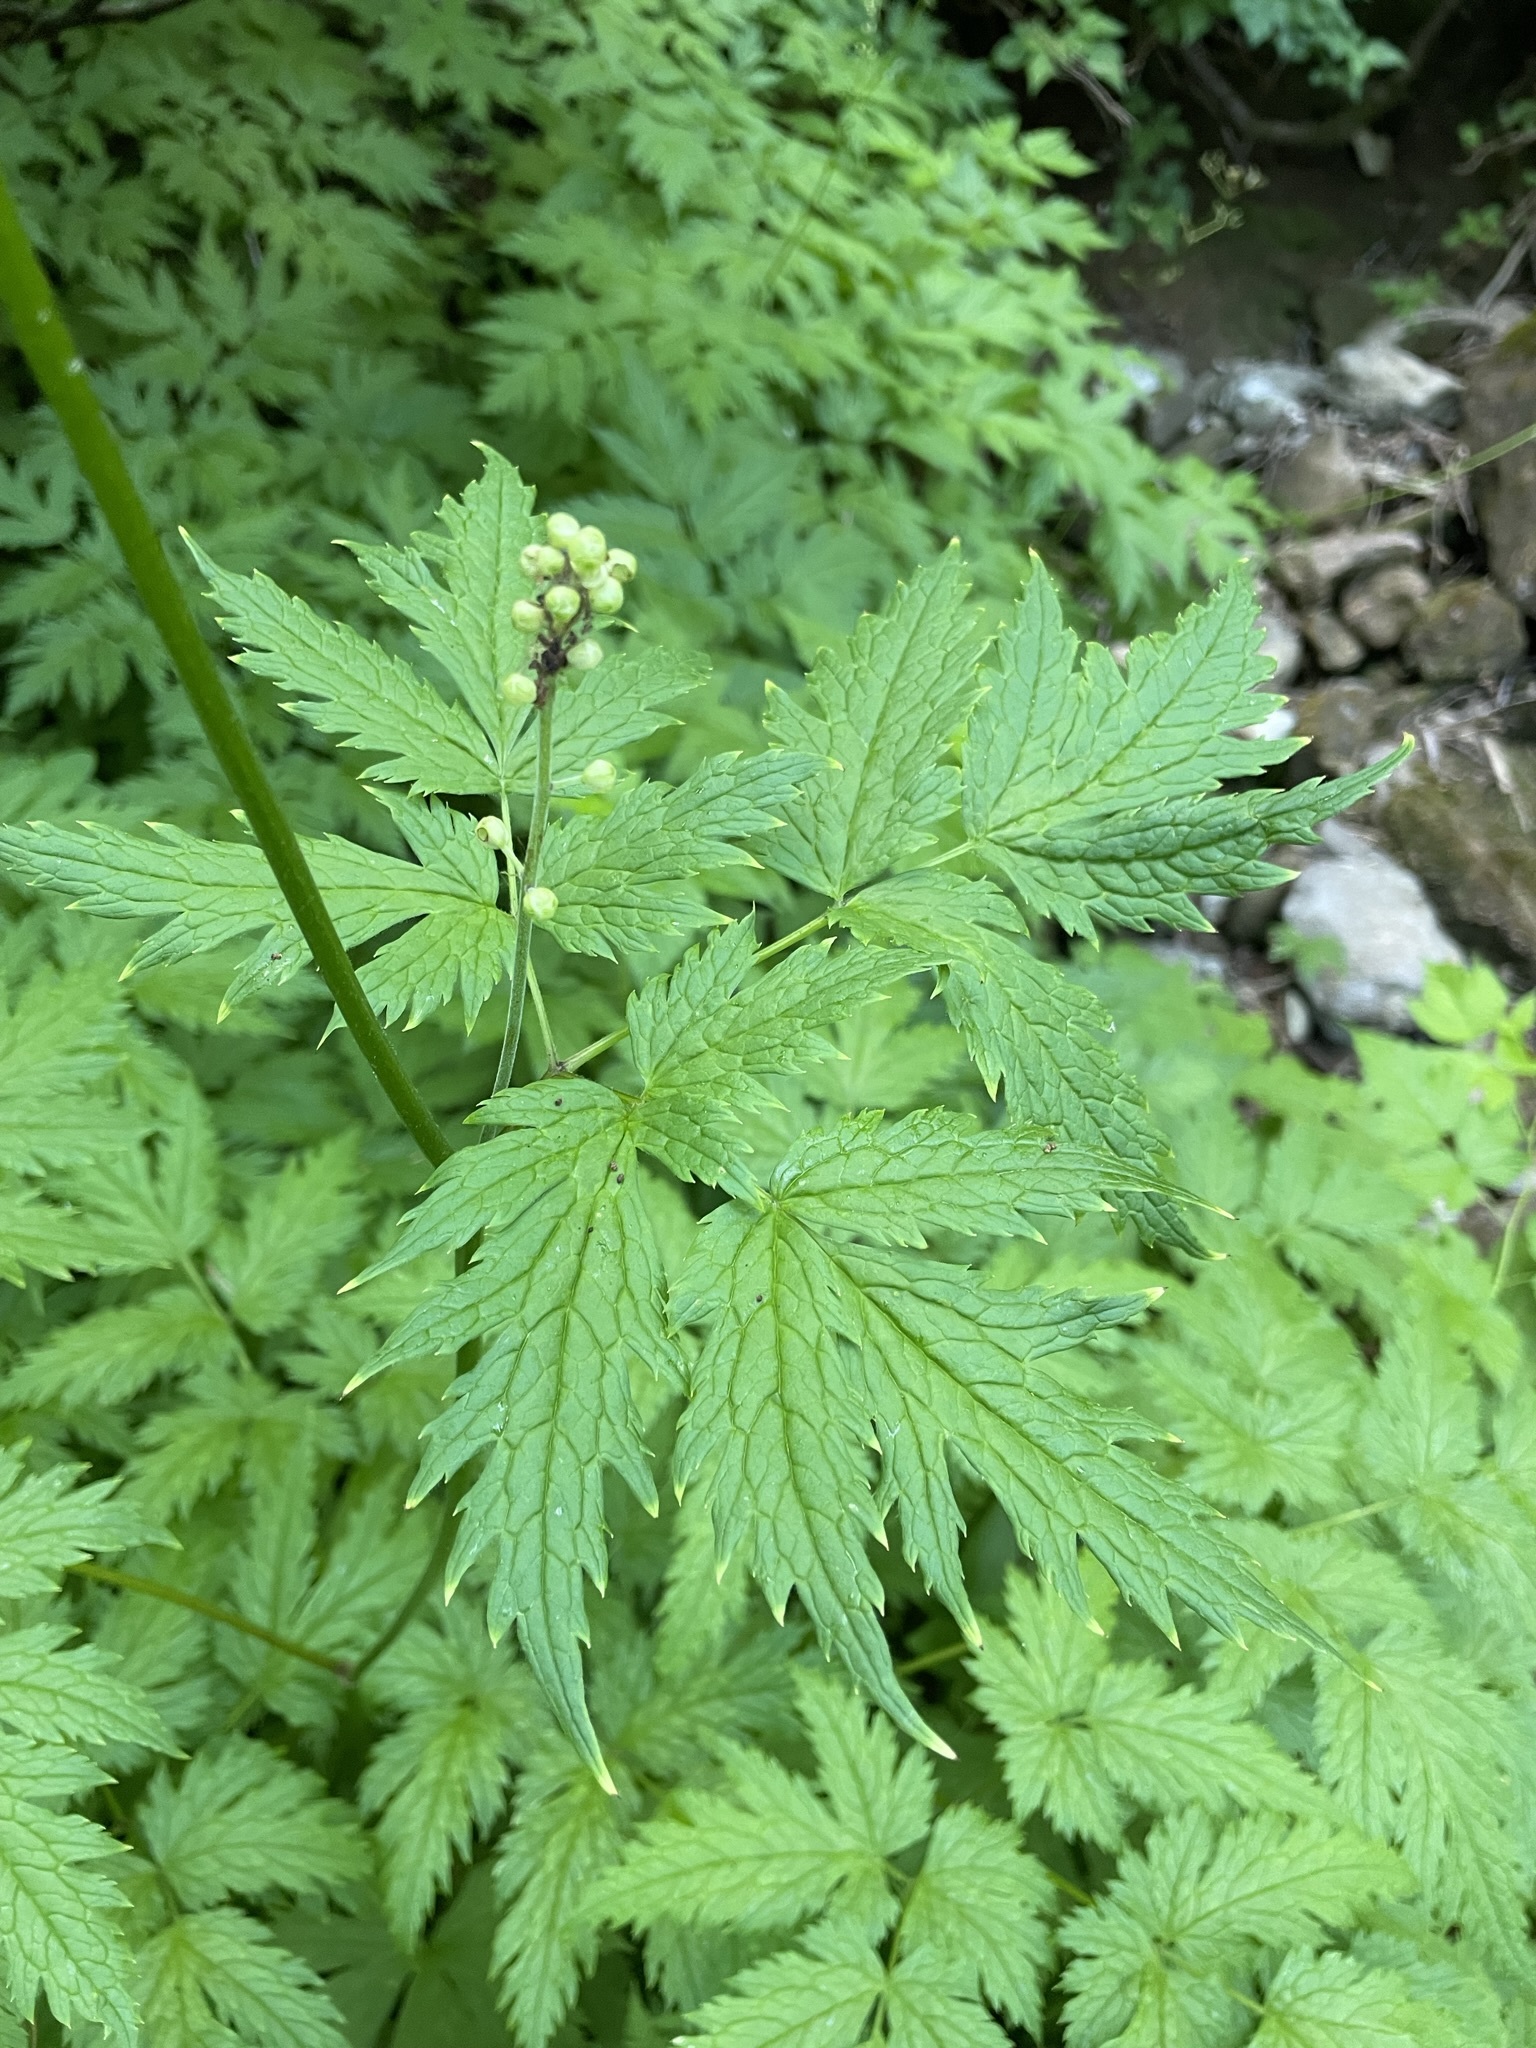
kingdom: Plantae
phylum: Tracheophyta
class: Magnoliopsida
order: Ranunculales
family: Ranunculaceae
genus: Actaea
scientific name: Actaea laciniata
